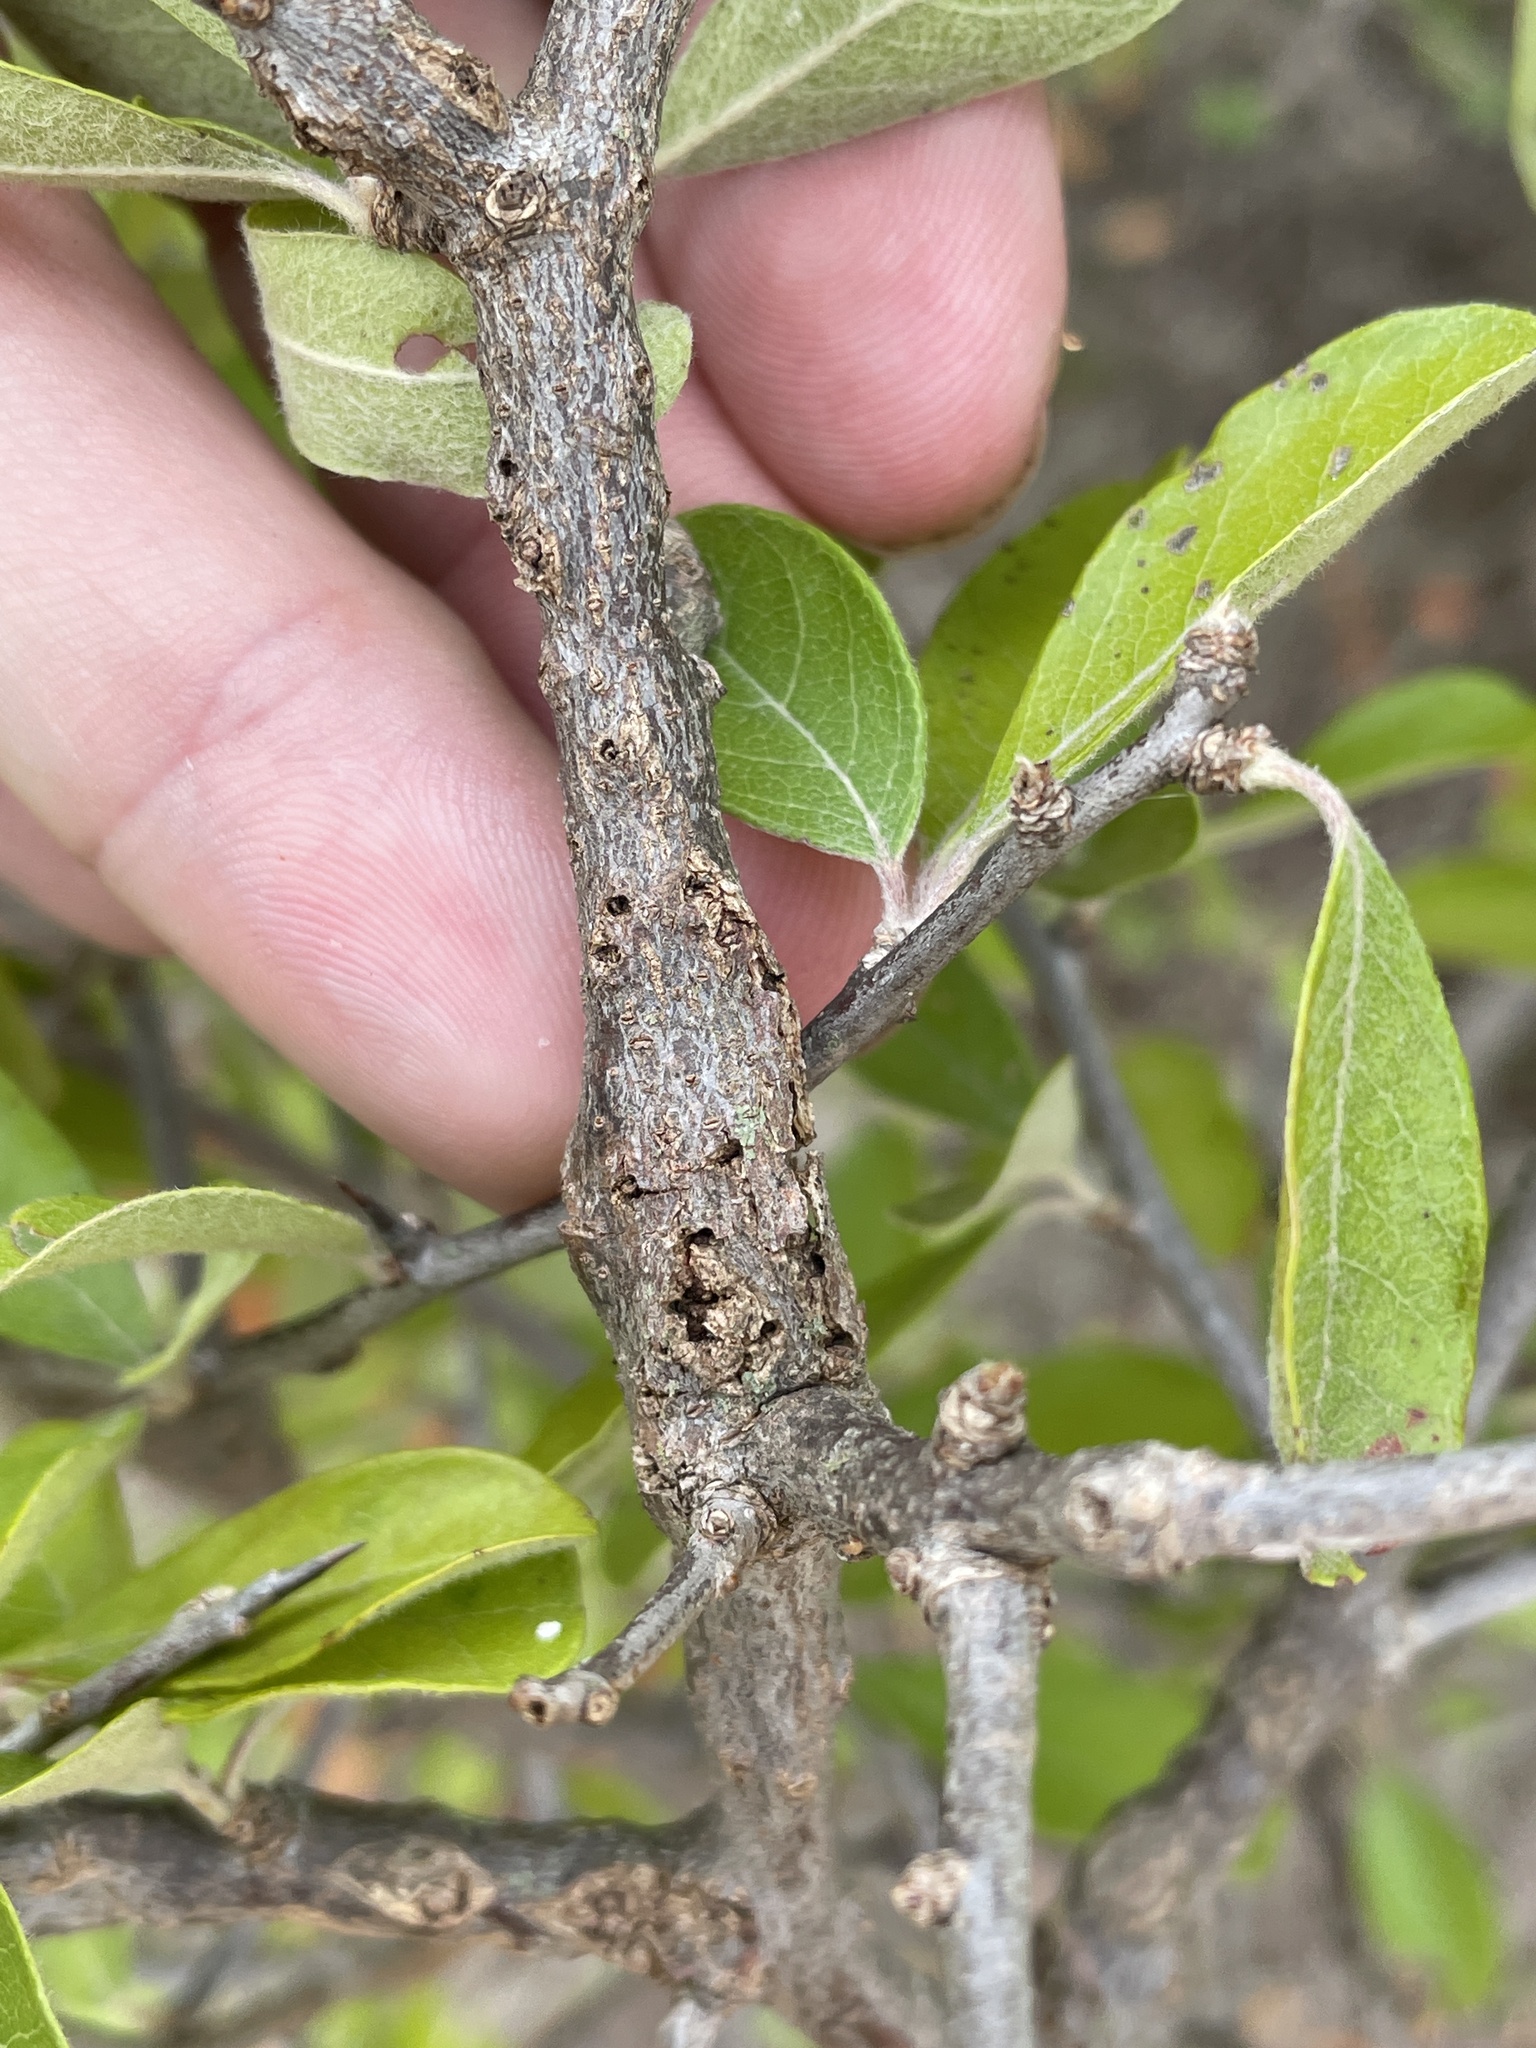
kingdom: Animalia
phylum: Arthropoda
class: Insecta
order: Diptera
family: Cecidomyiidae
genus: Bruggmanniella
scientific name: Bruggmanniella bumeliae
